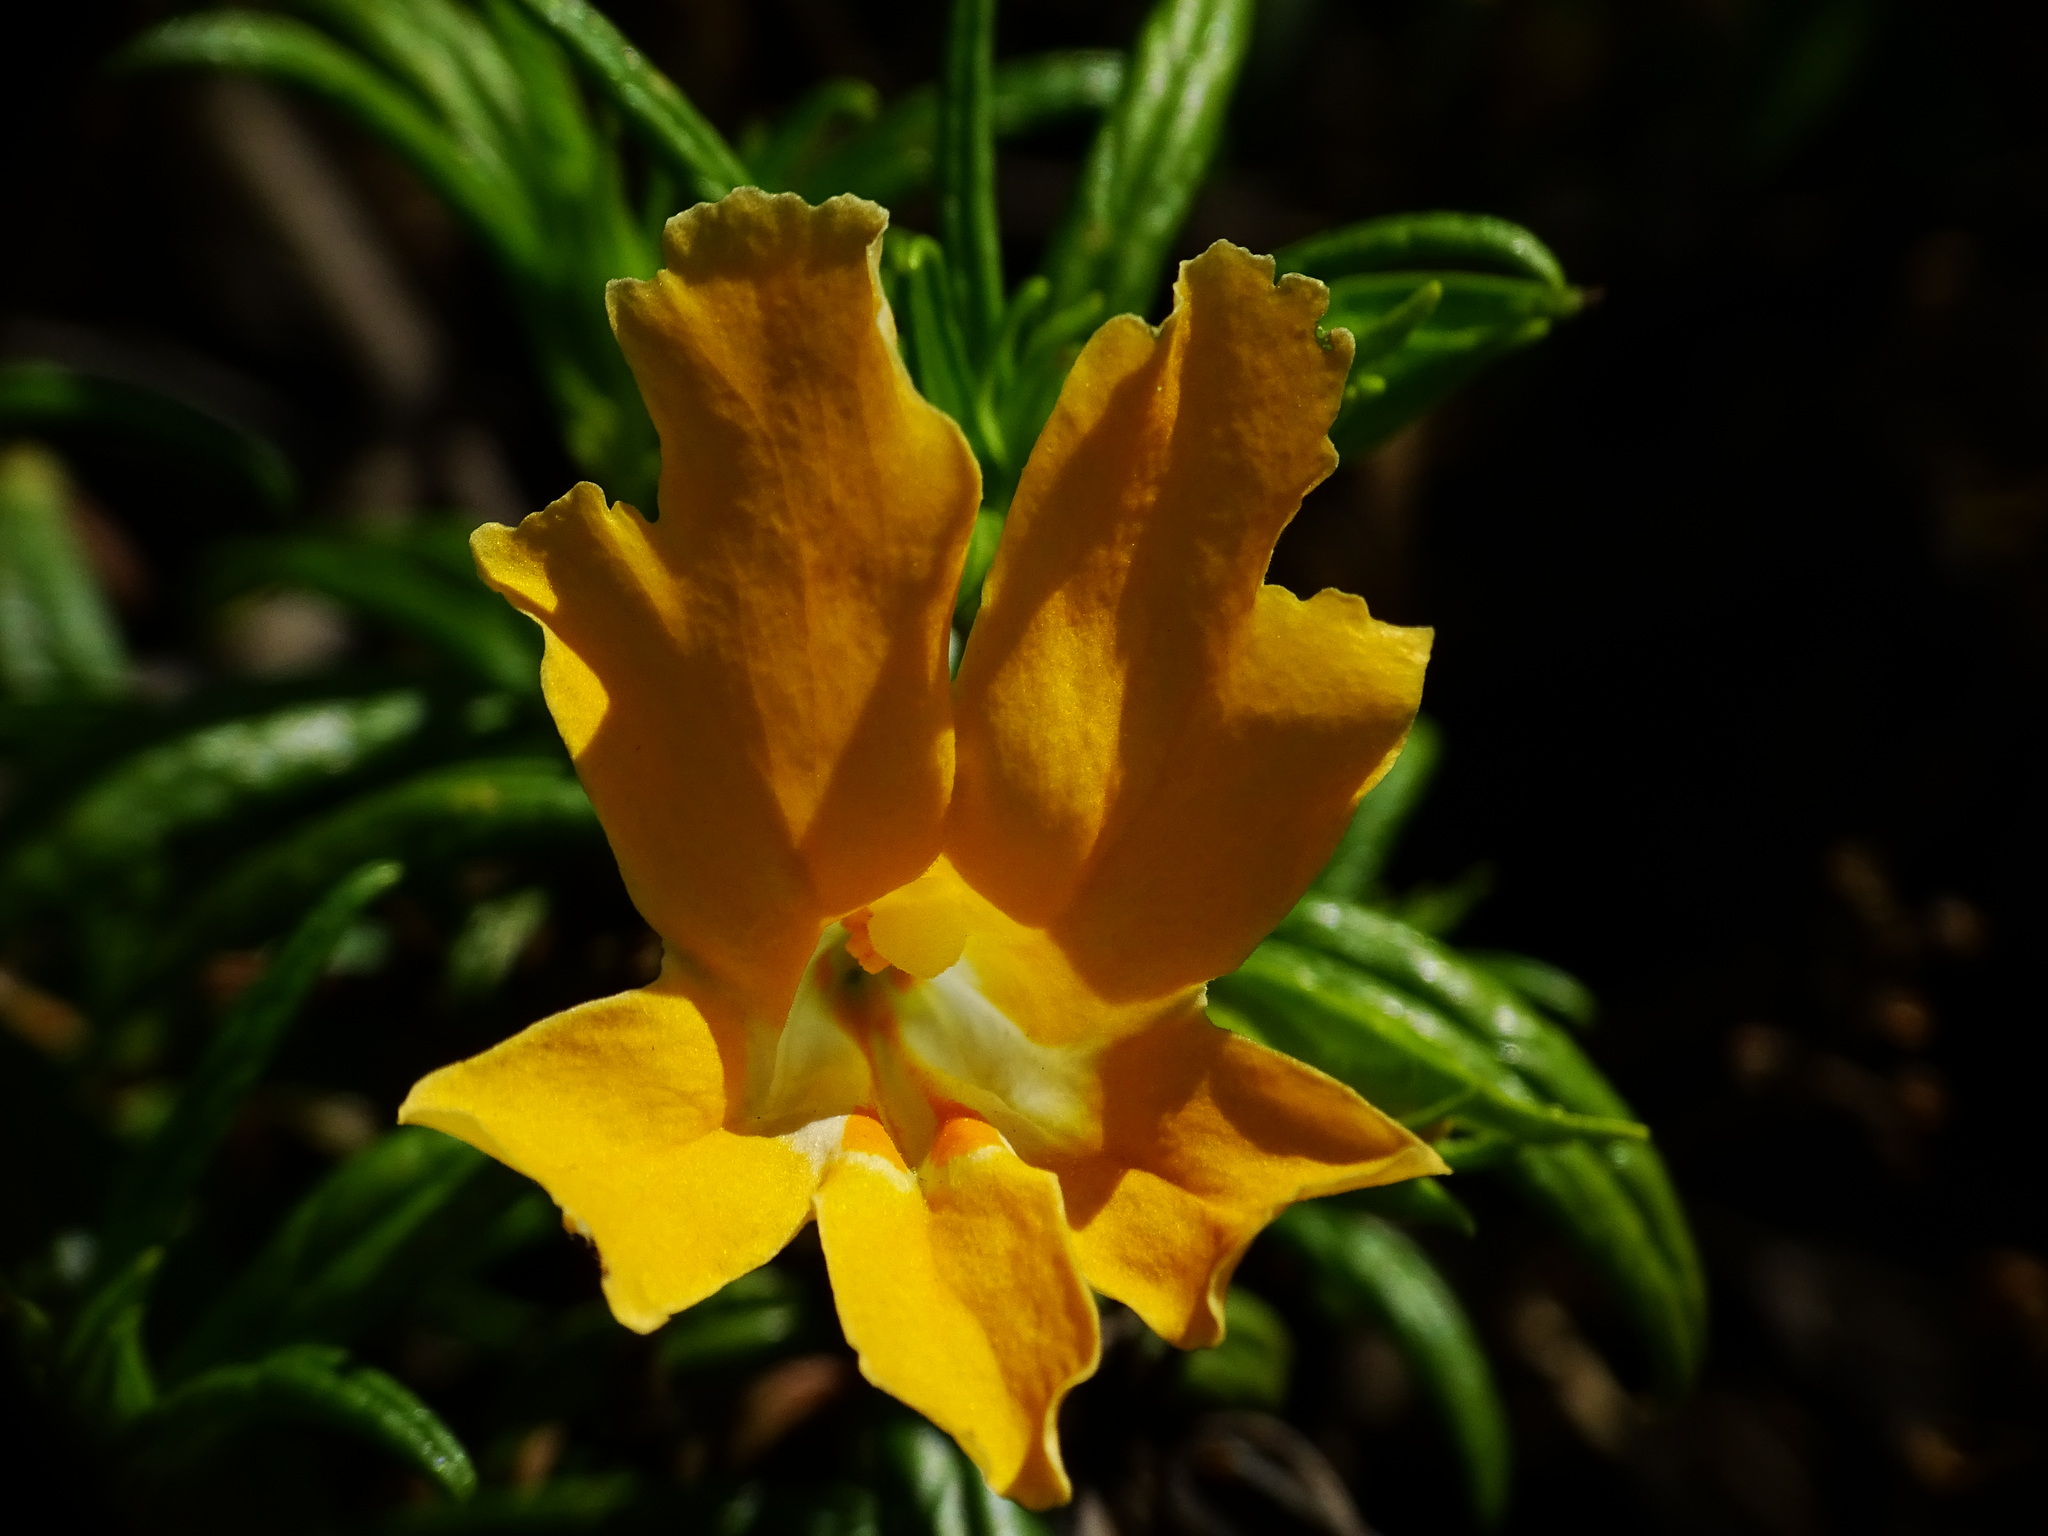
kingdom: Plantae
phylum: Tracheophyta
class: Magnoliopsida
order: Lamiales
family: Phrymaceae
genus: Diplacus
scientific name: Diplacus australis
